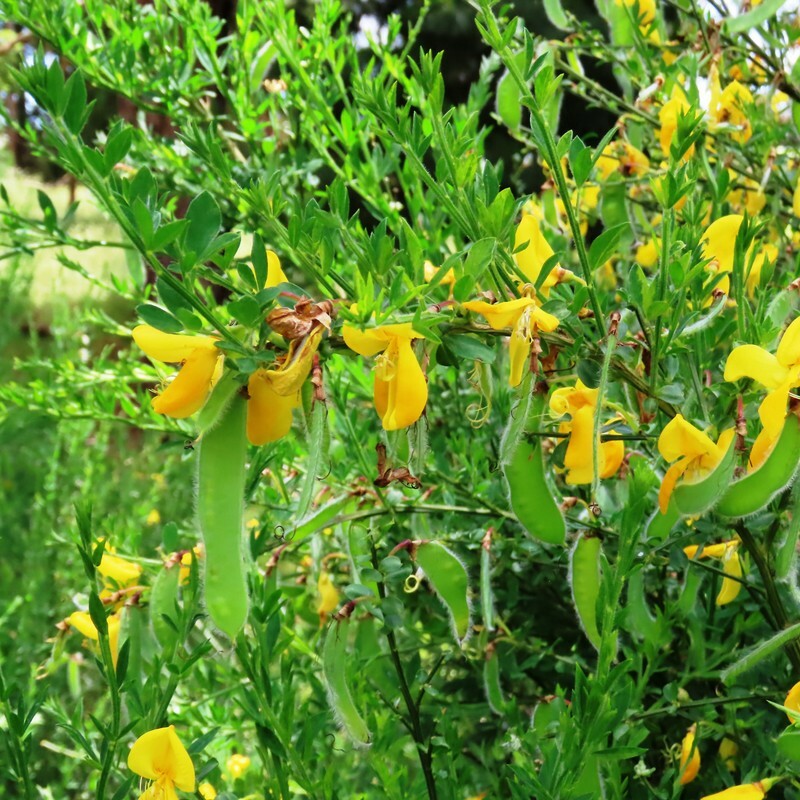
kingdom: Plantae
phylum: Tracheophyta
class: Magnoliopsida
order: Fabales
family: Fabaceae
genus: Cytisus
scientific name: Cytisus scoparius
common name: Scotch broom
